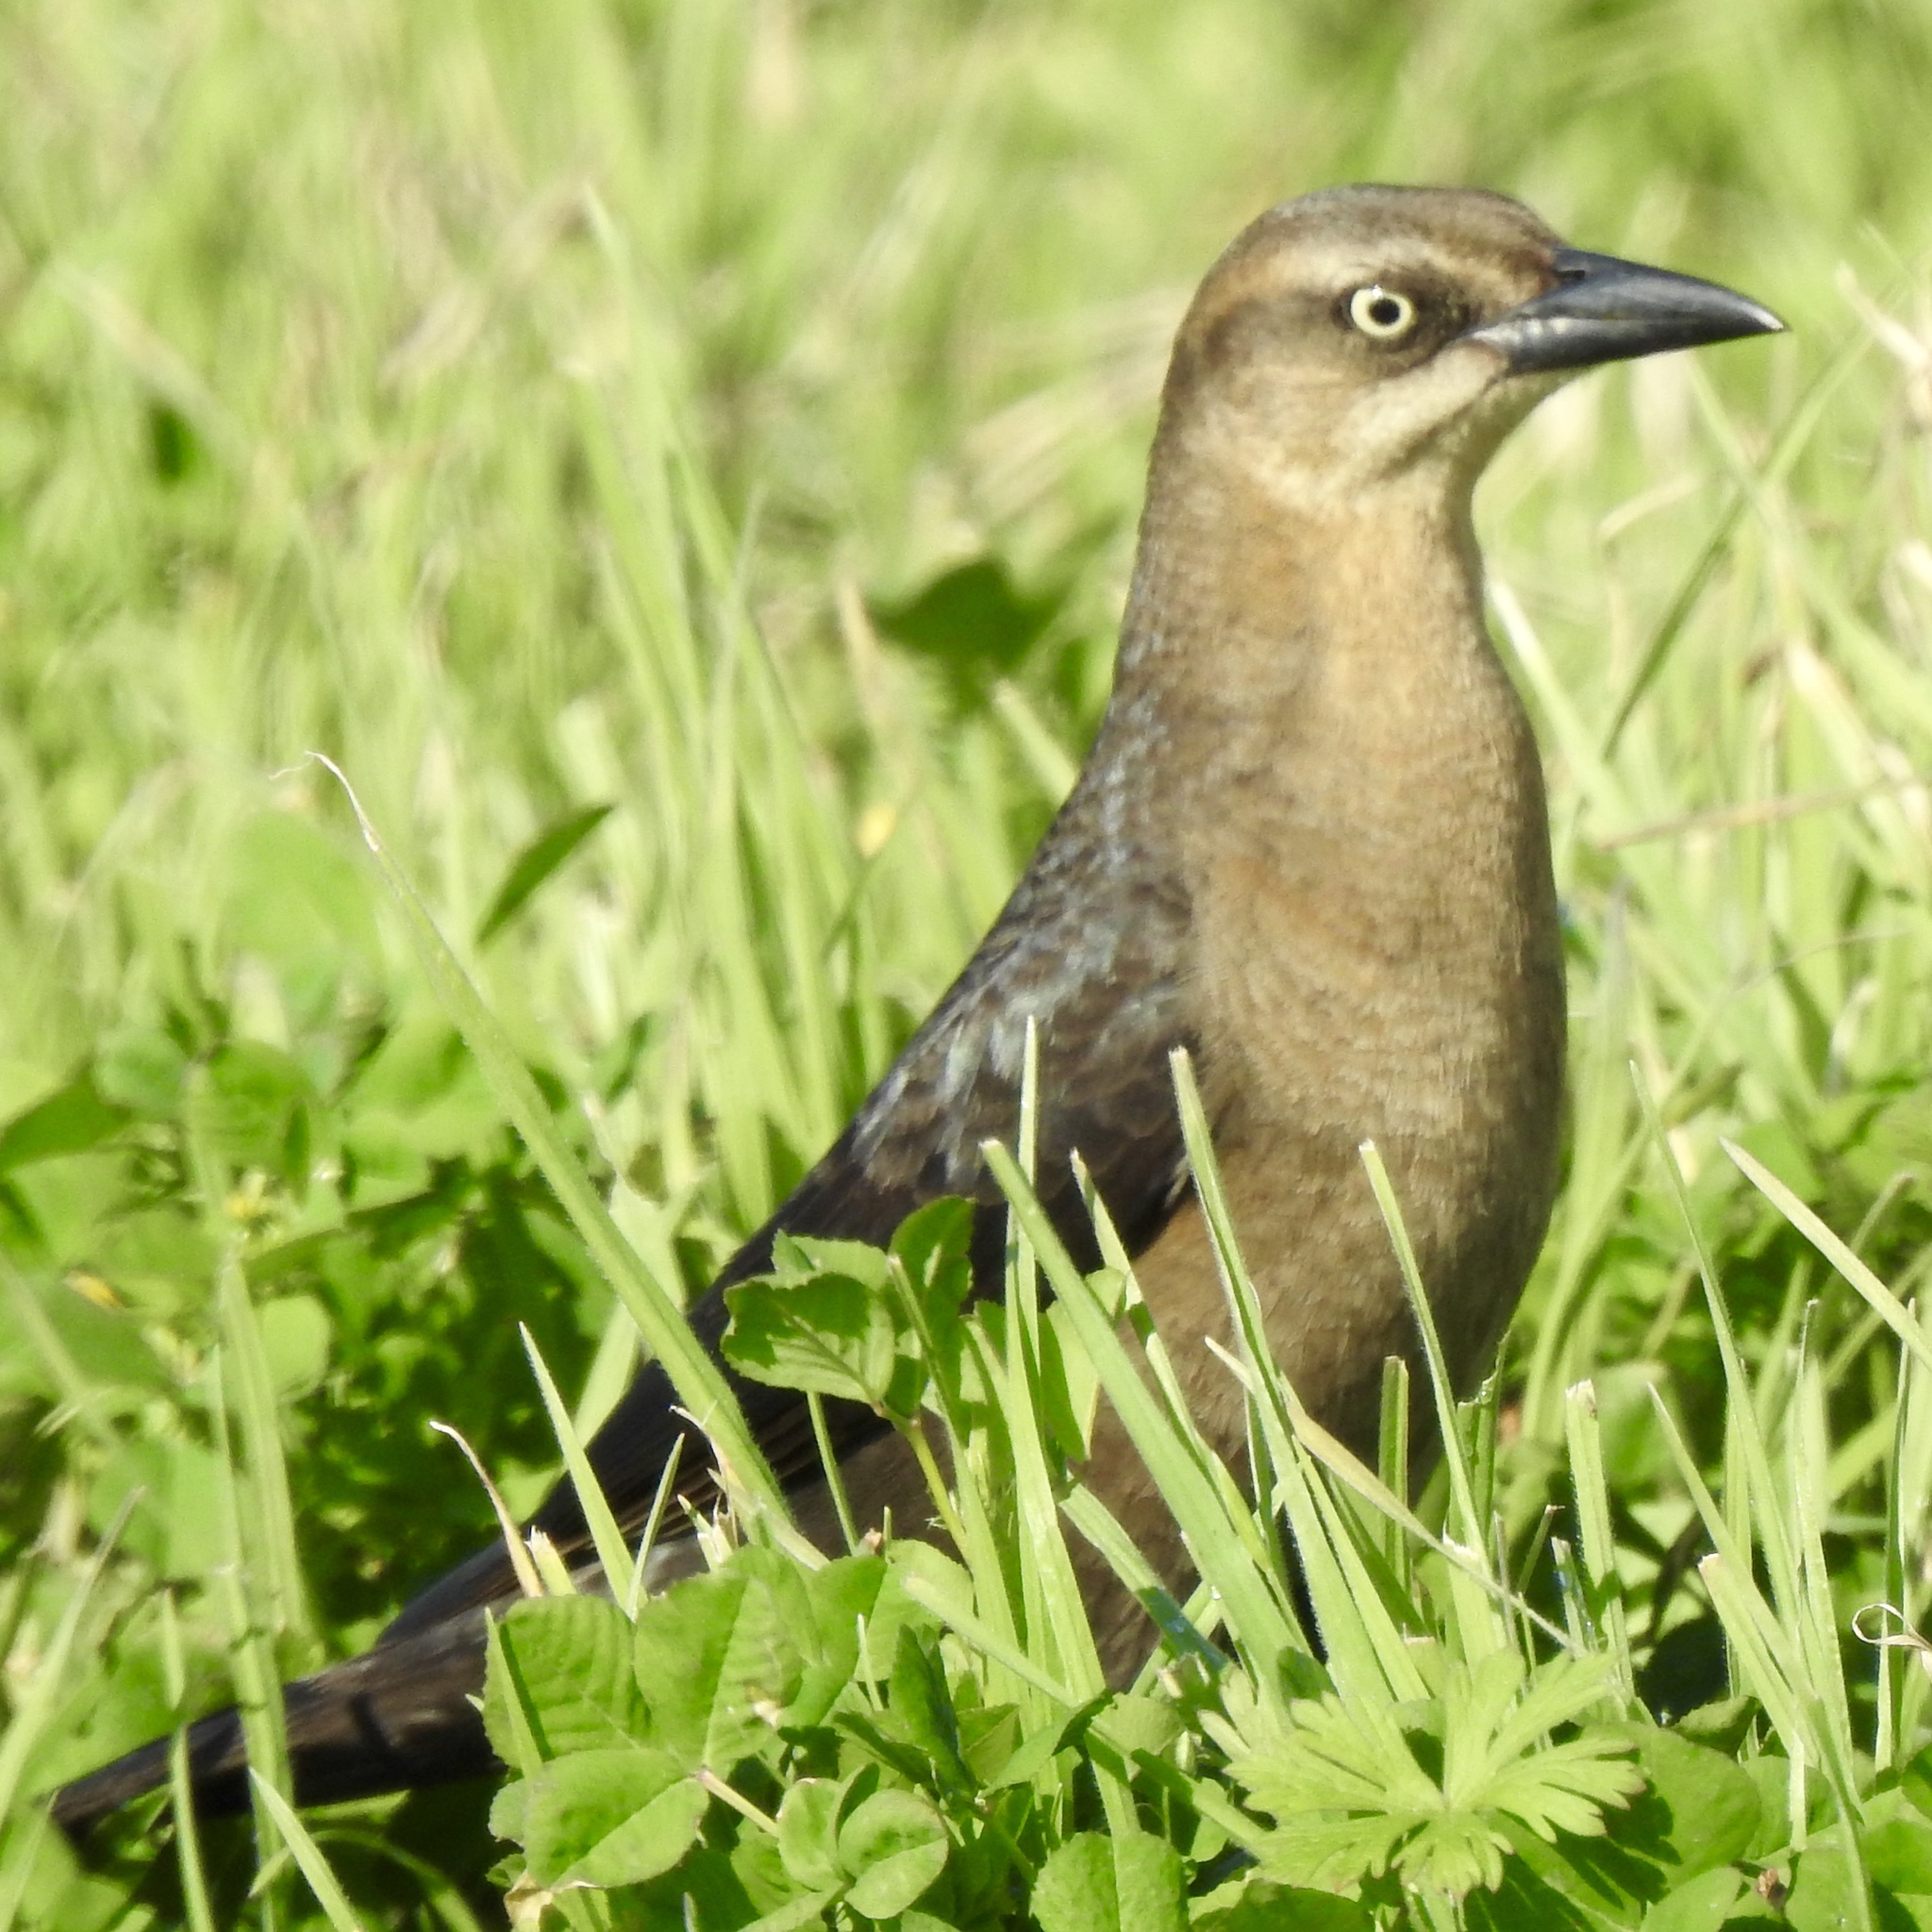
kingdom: Animalia
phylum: Chordata
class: Aves
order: Passeriformes
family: Icteridae
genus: Quiscalus
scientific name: Quiscalus mexicanus
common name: Great-tailed grackle
